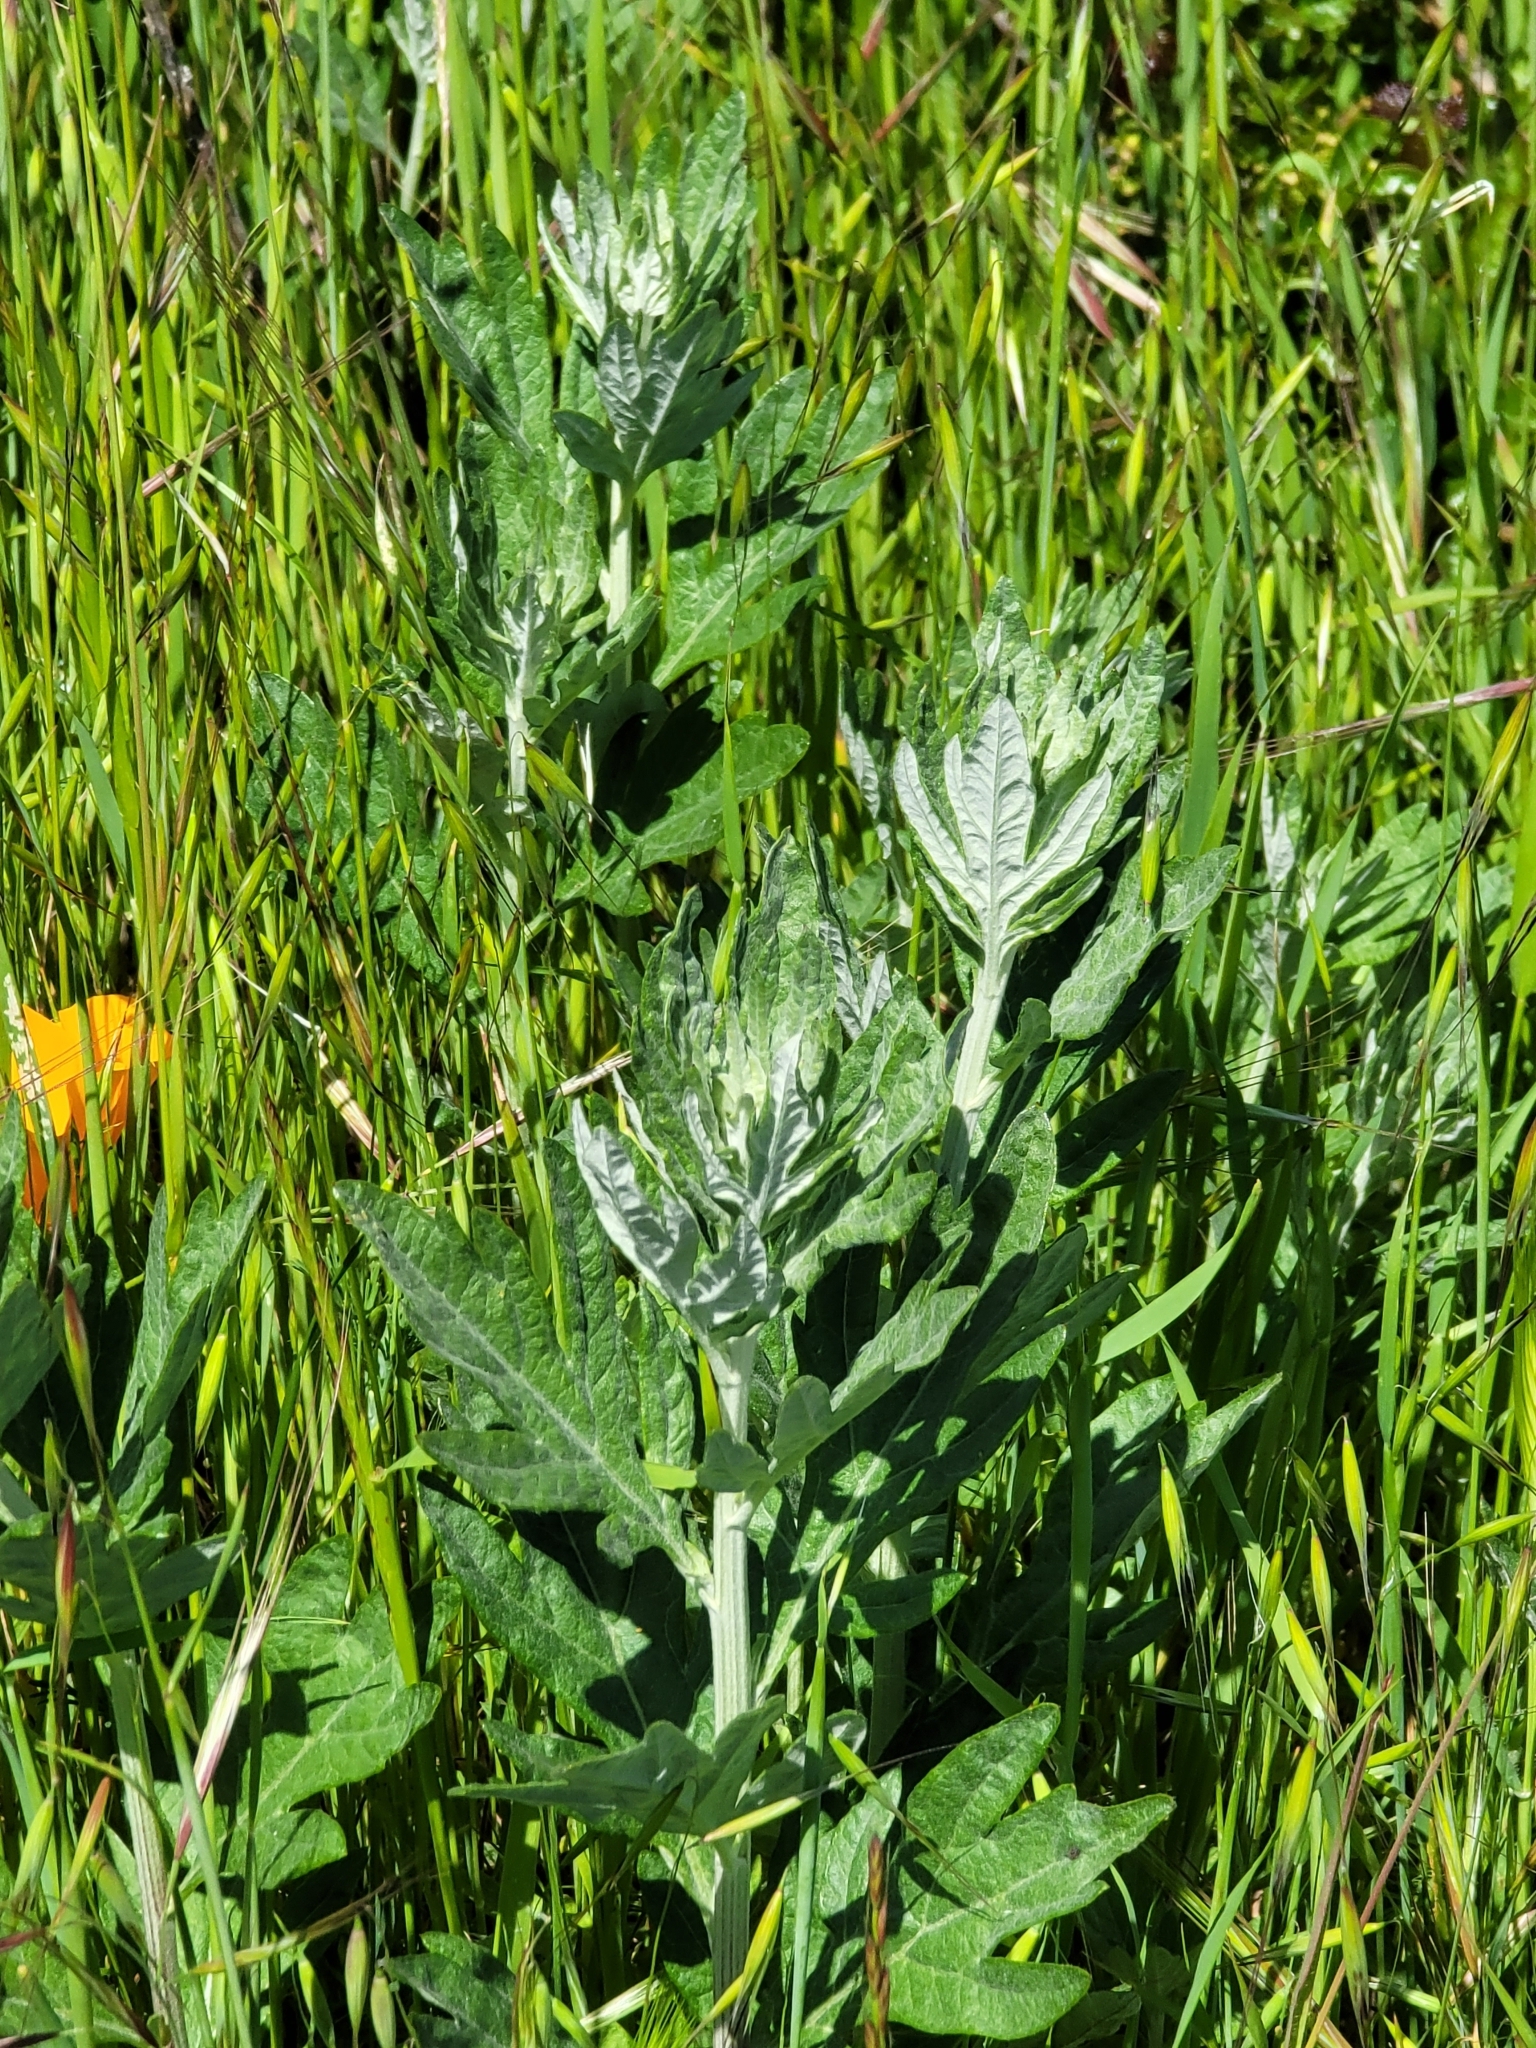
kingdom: Plantae
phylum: Tracheophyta
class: Magnoliopsida
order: Asterales
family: Asteraceae
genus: Artemisia
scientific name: Artemisia douglasiana
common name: Northwest mugwort
